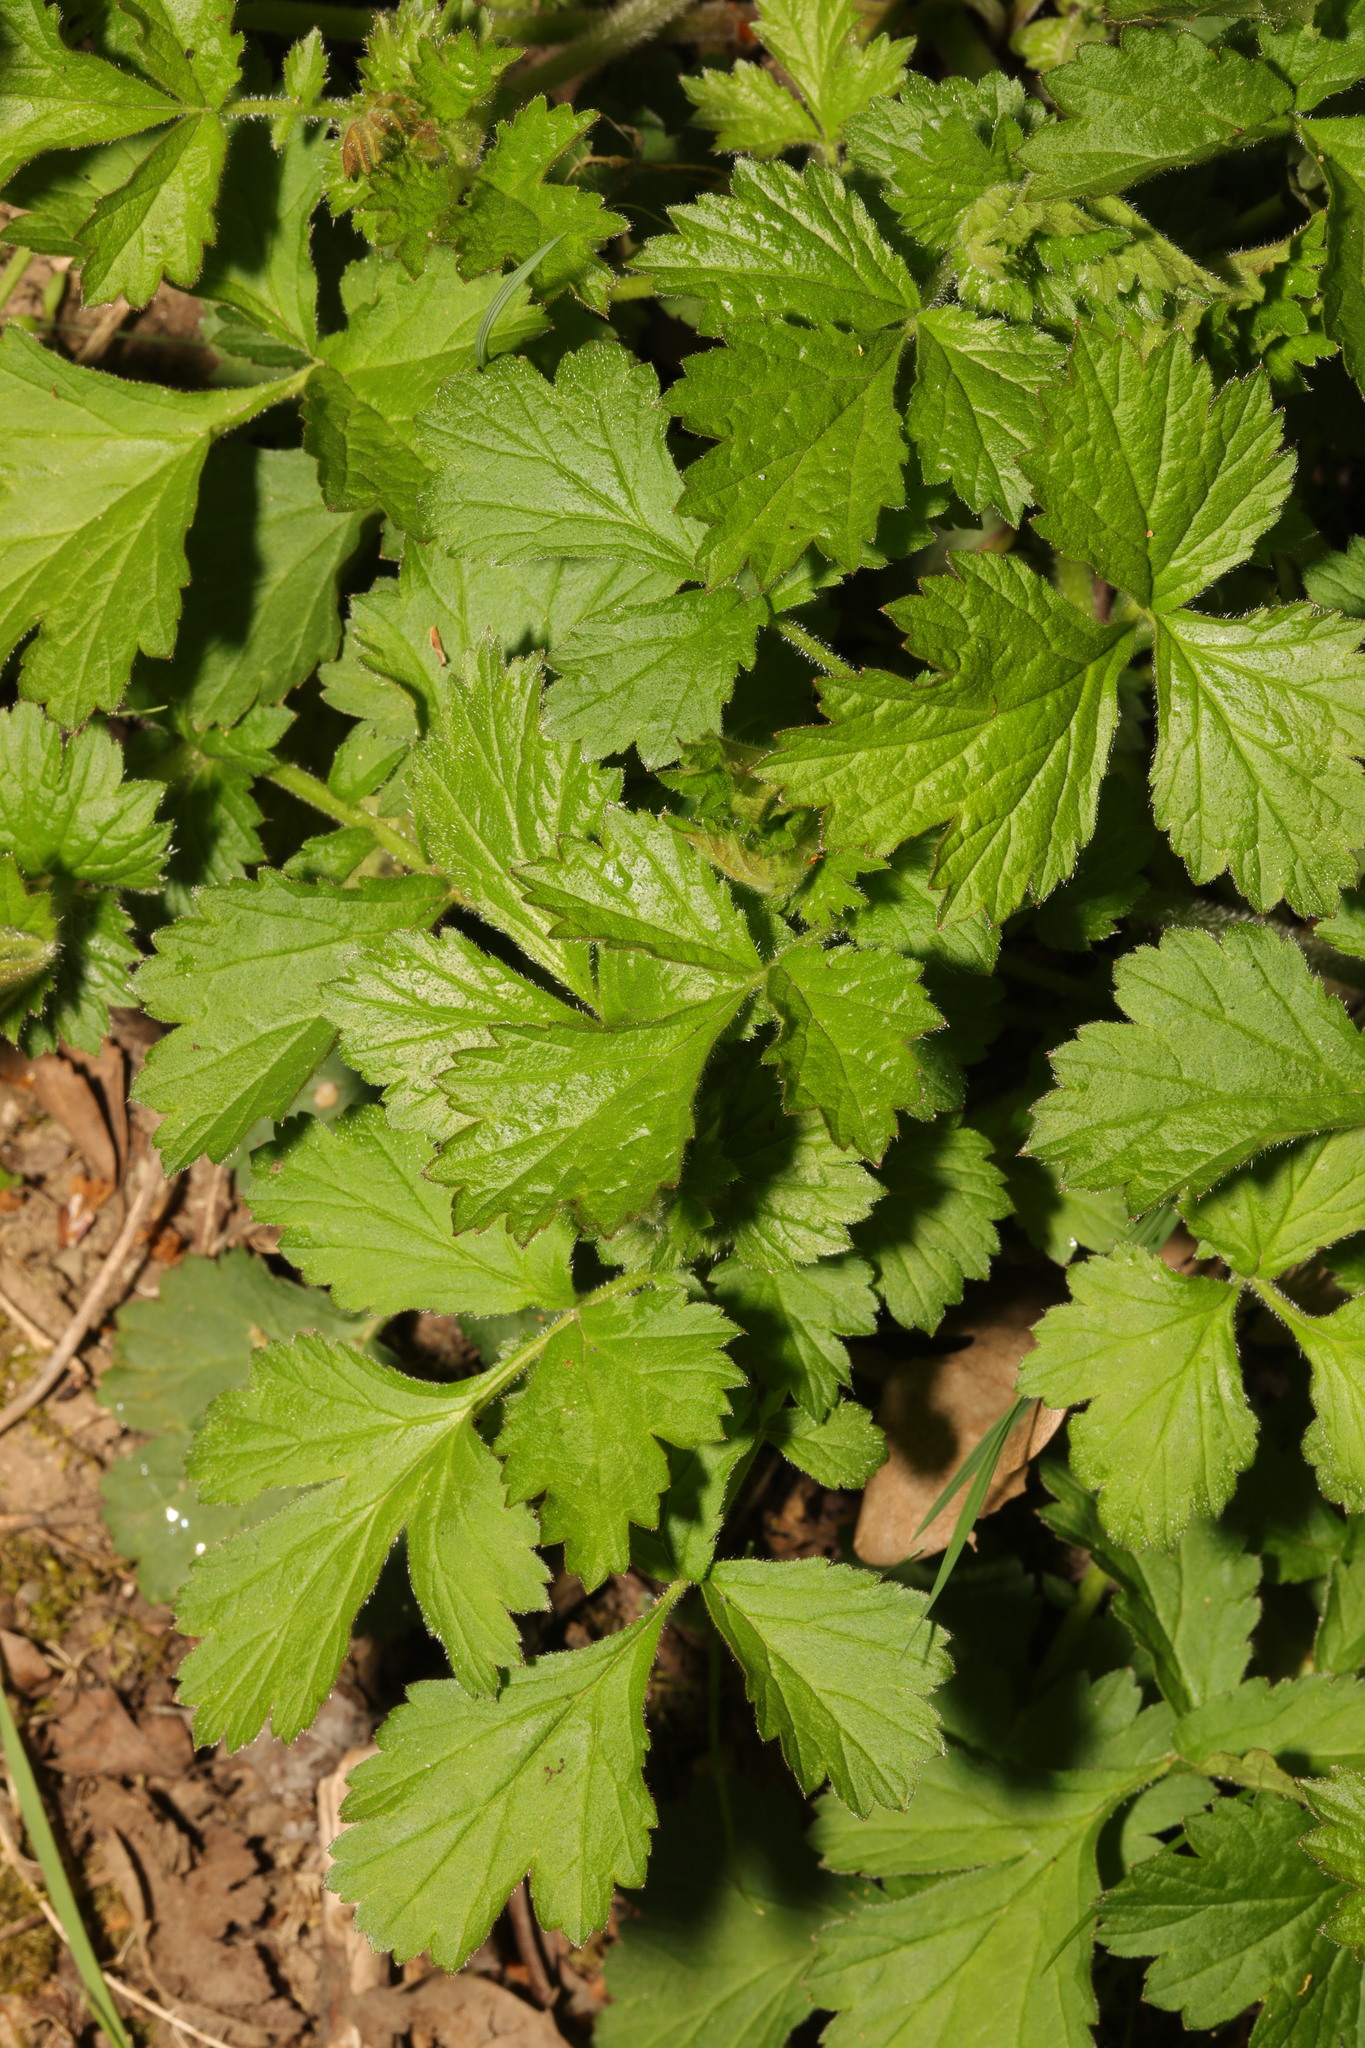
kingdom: Plantae
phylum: Tracheophyta
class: Magnoliopsida
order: Rosales
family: Rosaceae
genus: Geum
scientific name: Geum urbanum
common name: Wood avens
